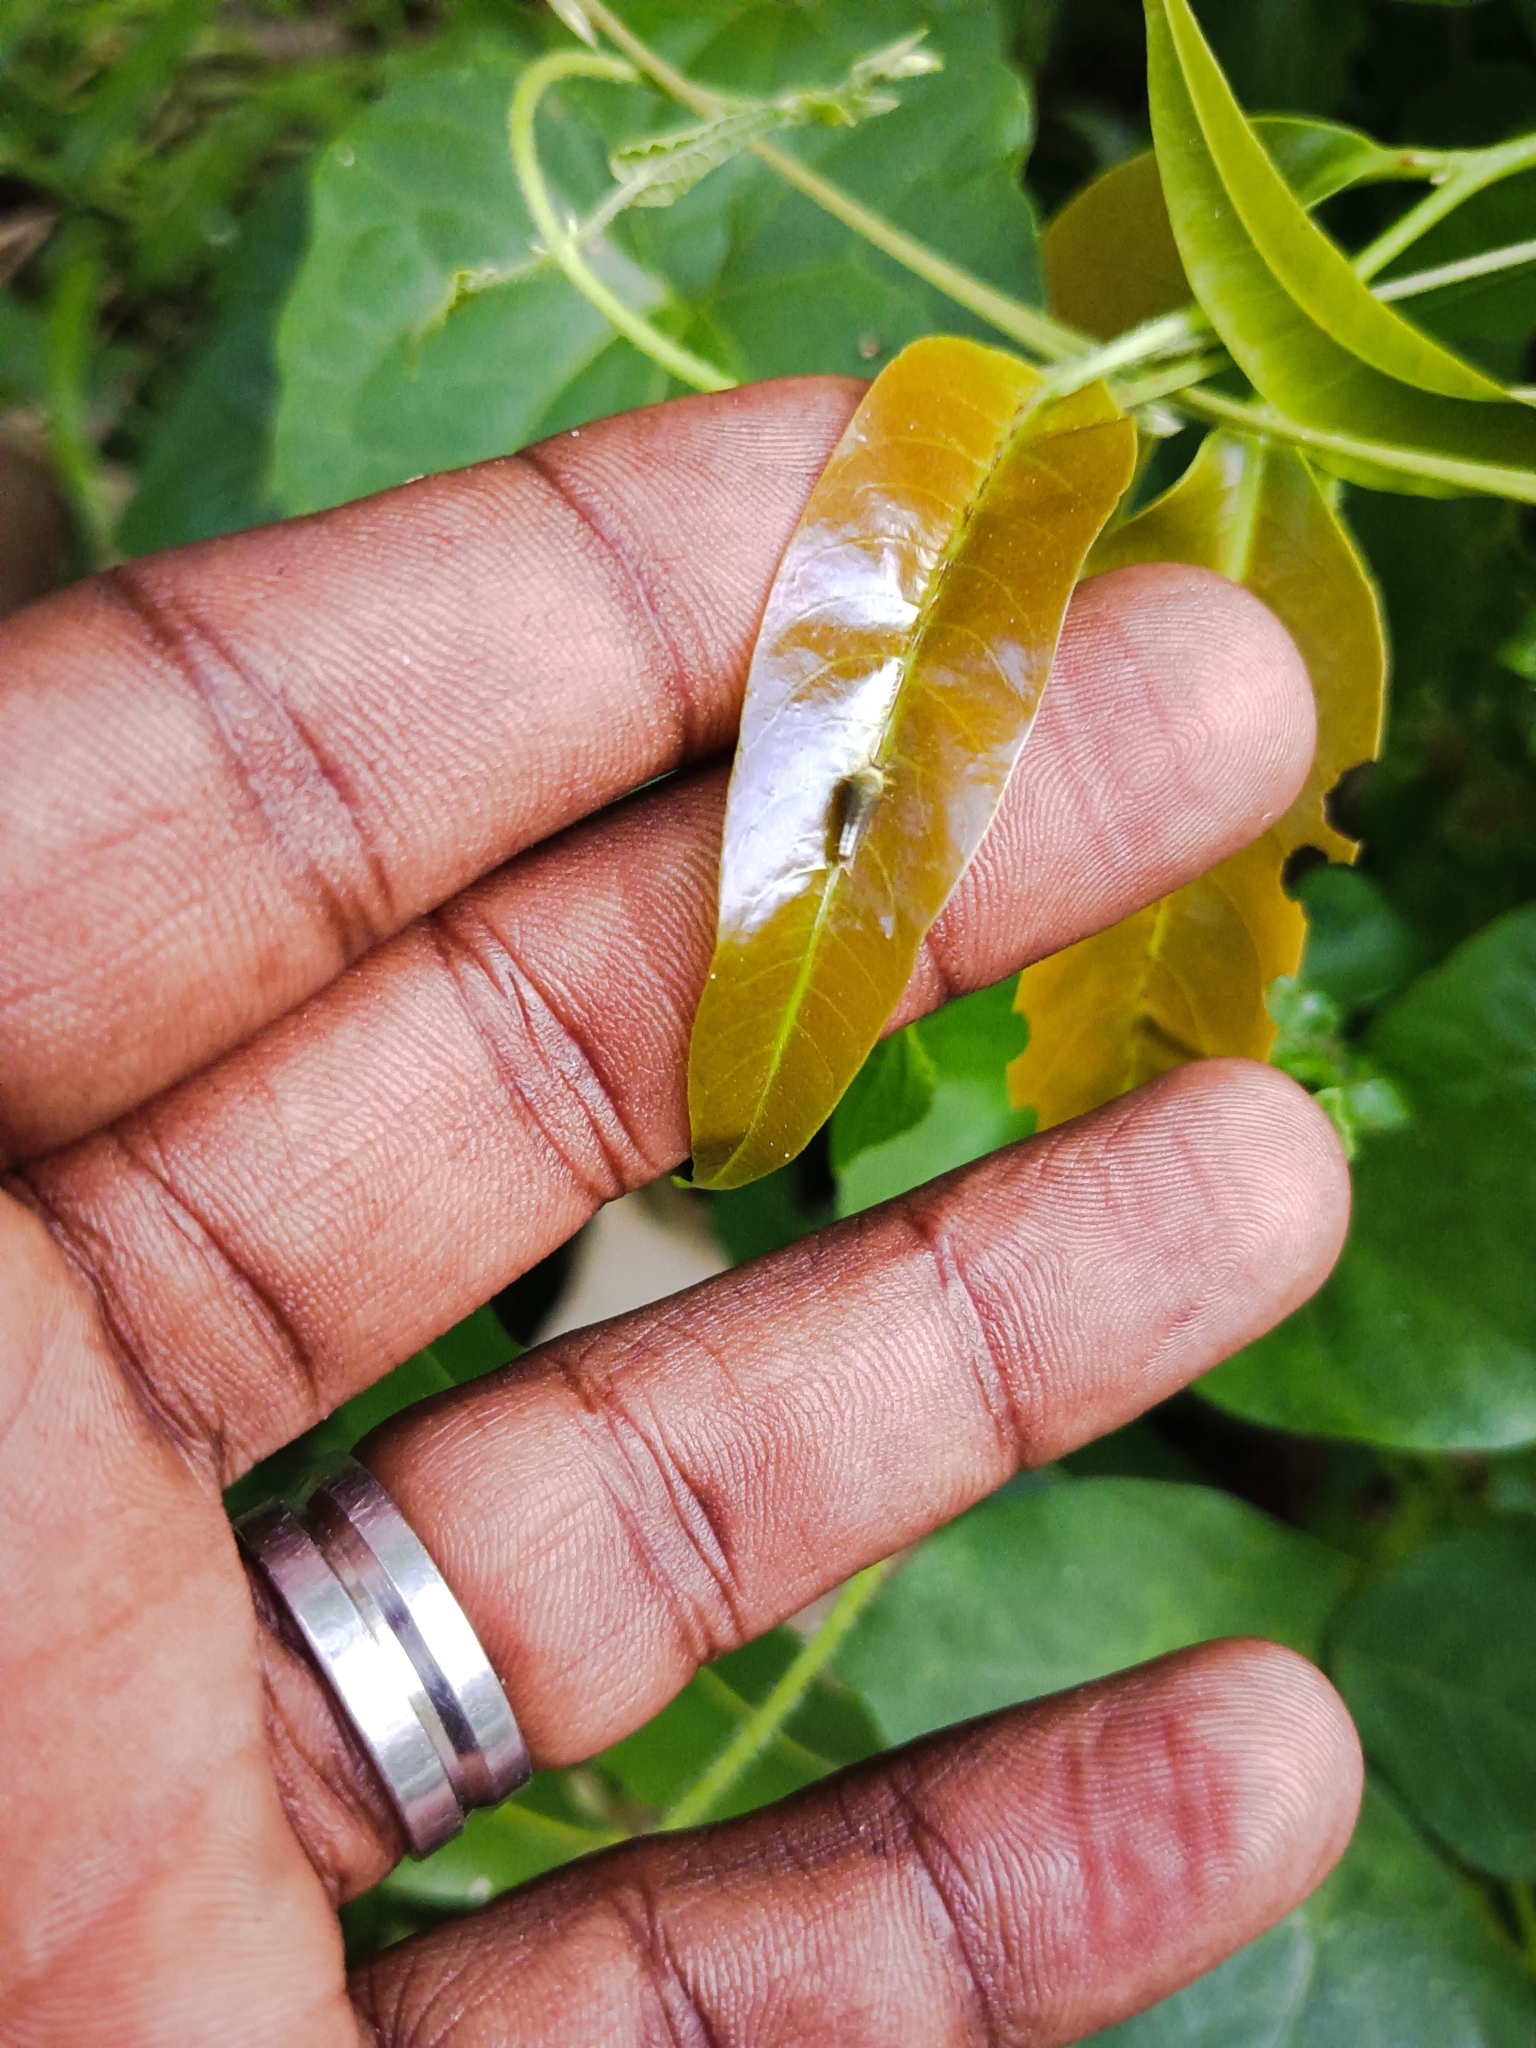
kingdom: Animalia
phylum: Arthropoda
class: Insecta
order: Lepidoptera
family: Papilionidae
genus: Graphium
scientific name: Graphium agamemnon
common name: Tailed jay
